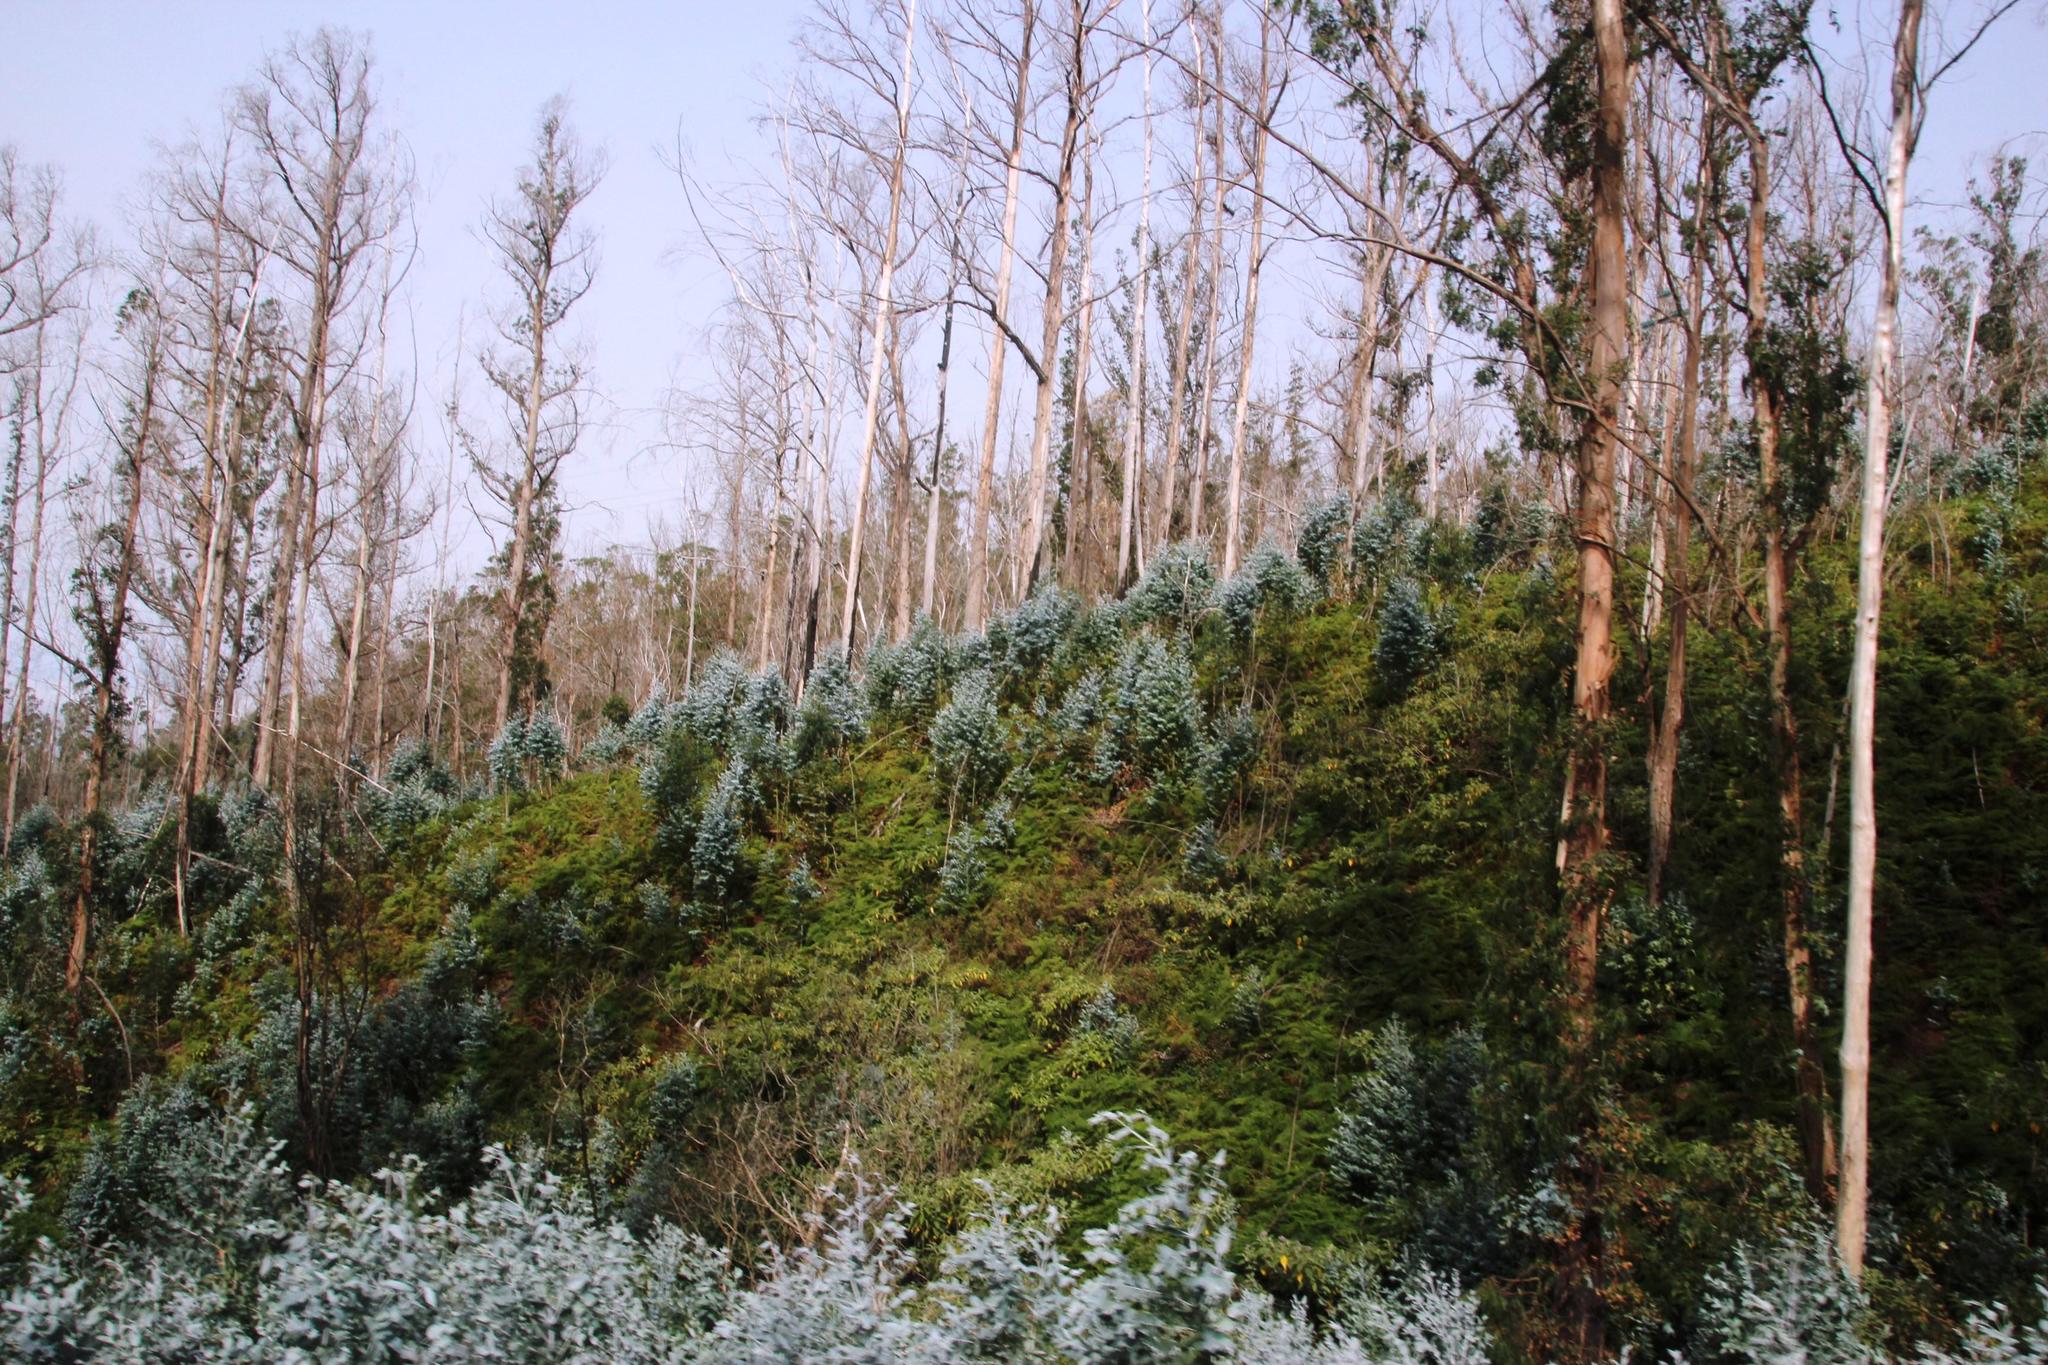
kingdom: Plantae
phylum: Tracheophyta
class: Magnoliopsida
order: Myrtales
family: Myrtaceae
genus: Eucalyptus
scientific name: Eucalyptus globulus
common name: Southern blue-gum
